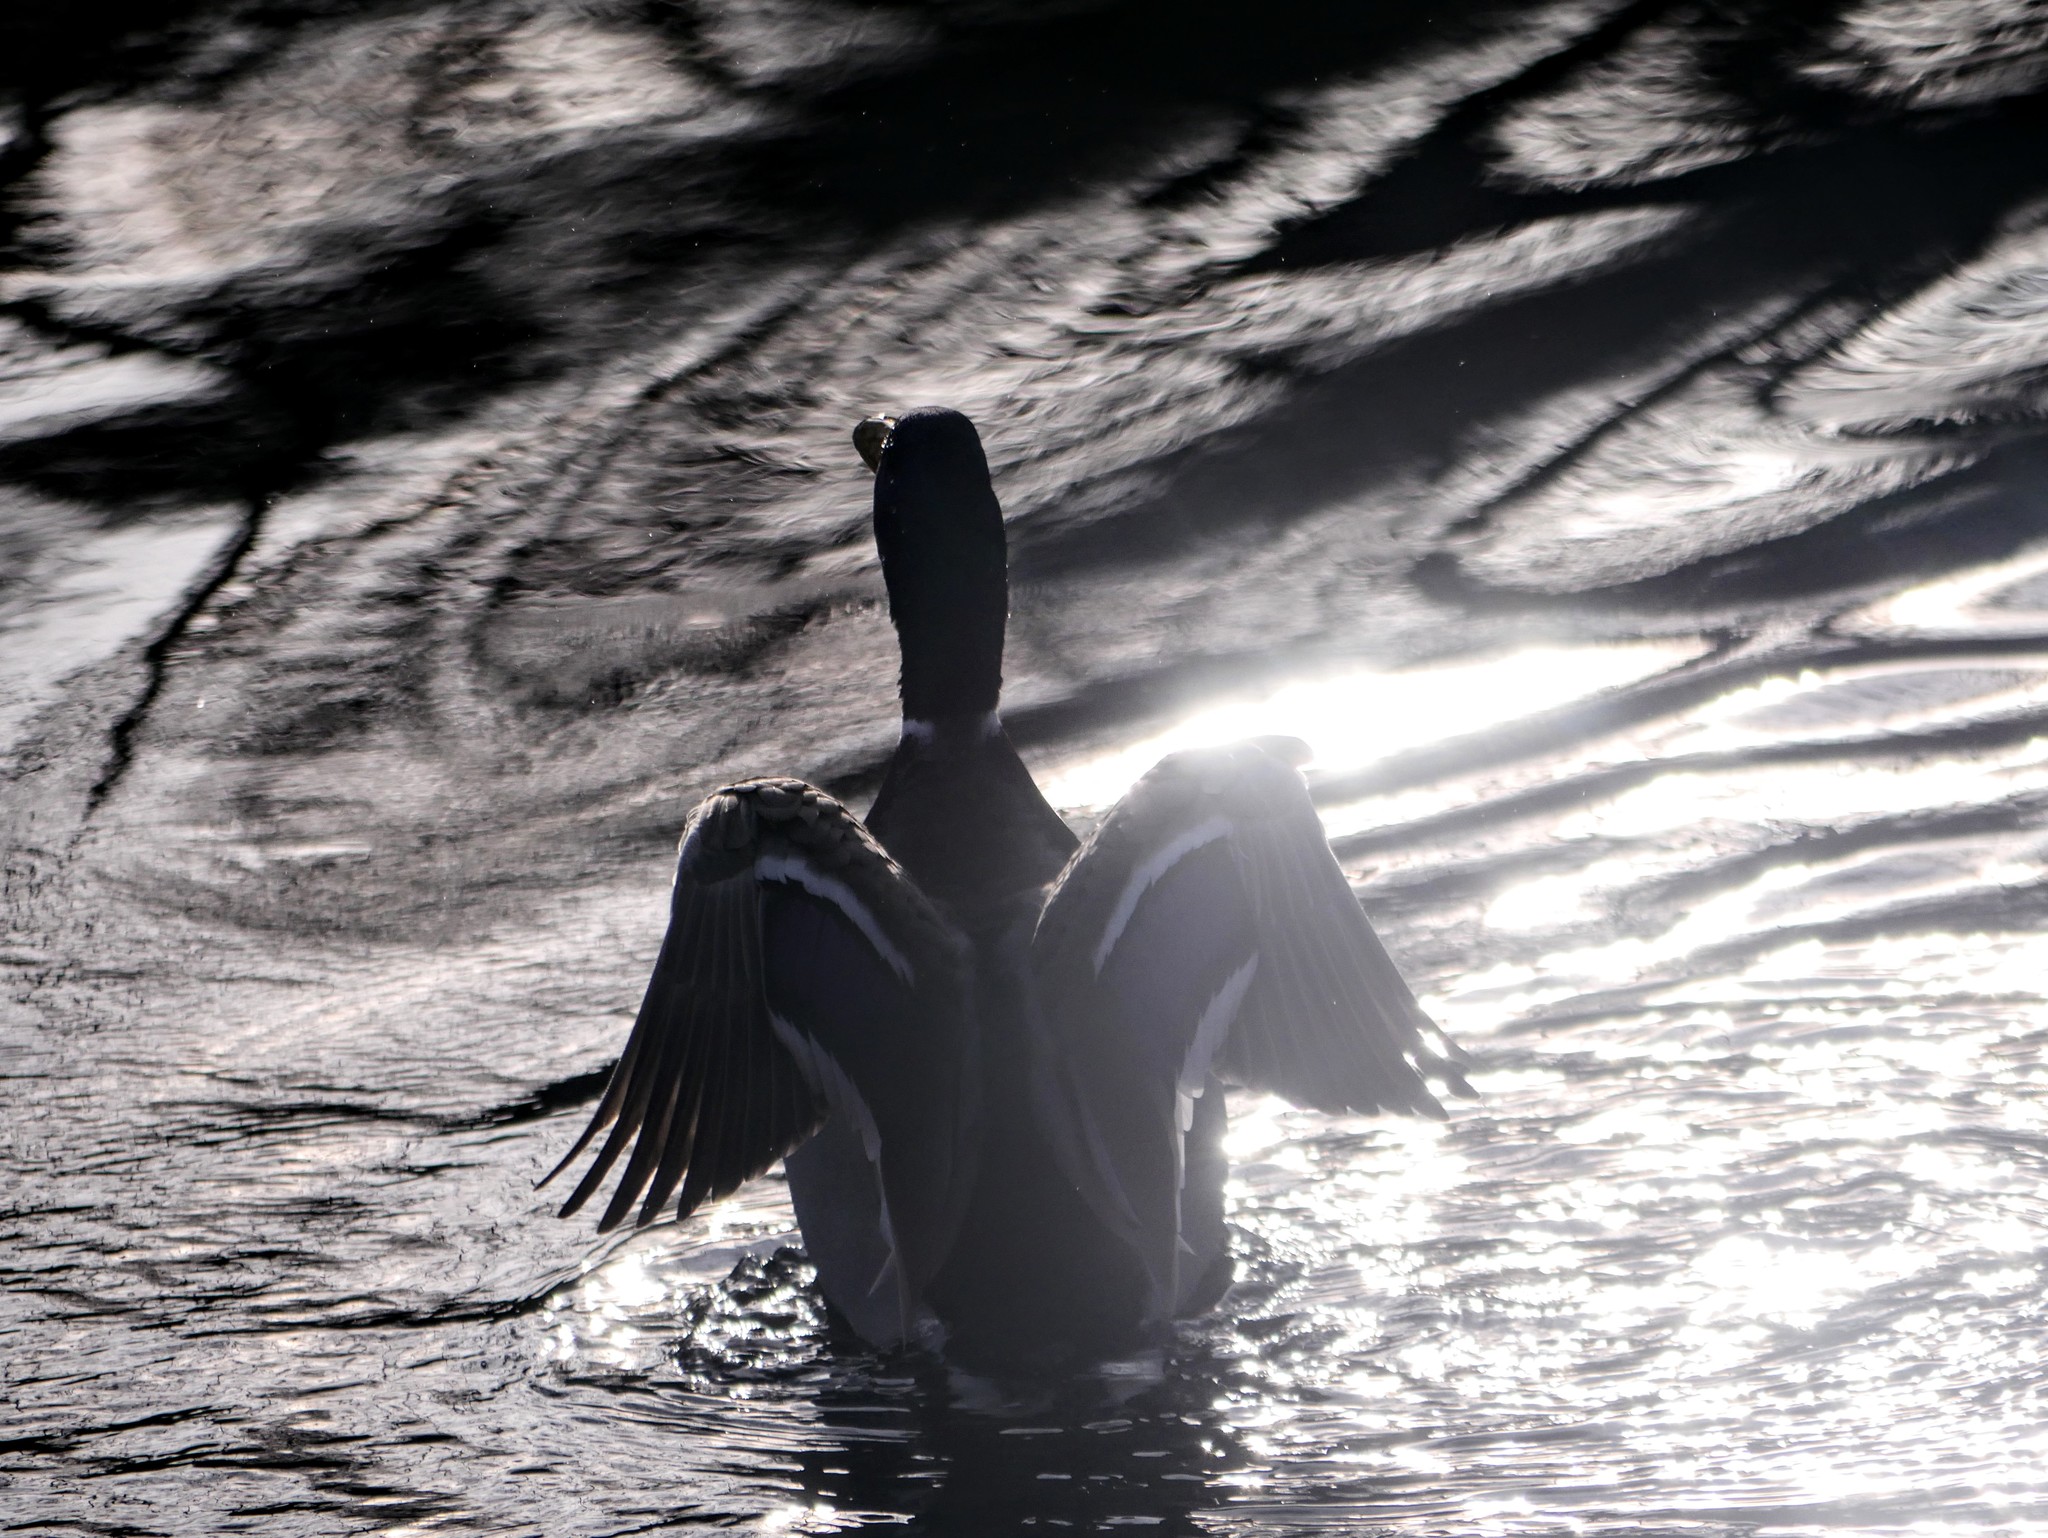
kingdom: Animalia
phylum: Chordata
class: Aves
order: Anseriformes
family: Anatidae
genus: Anas
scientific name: Anas platyrhynchos
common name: Mallard
